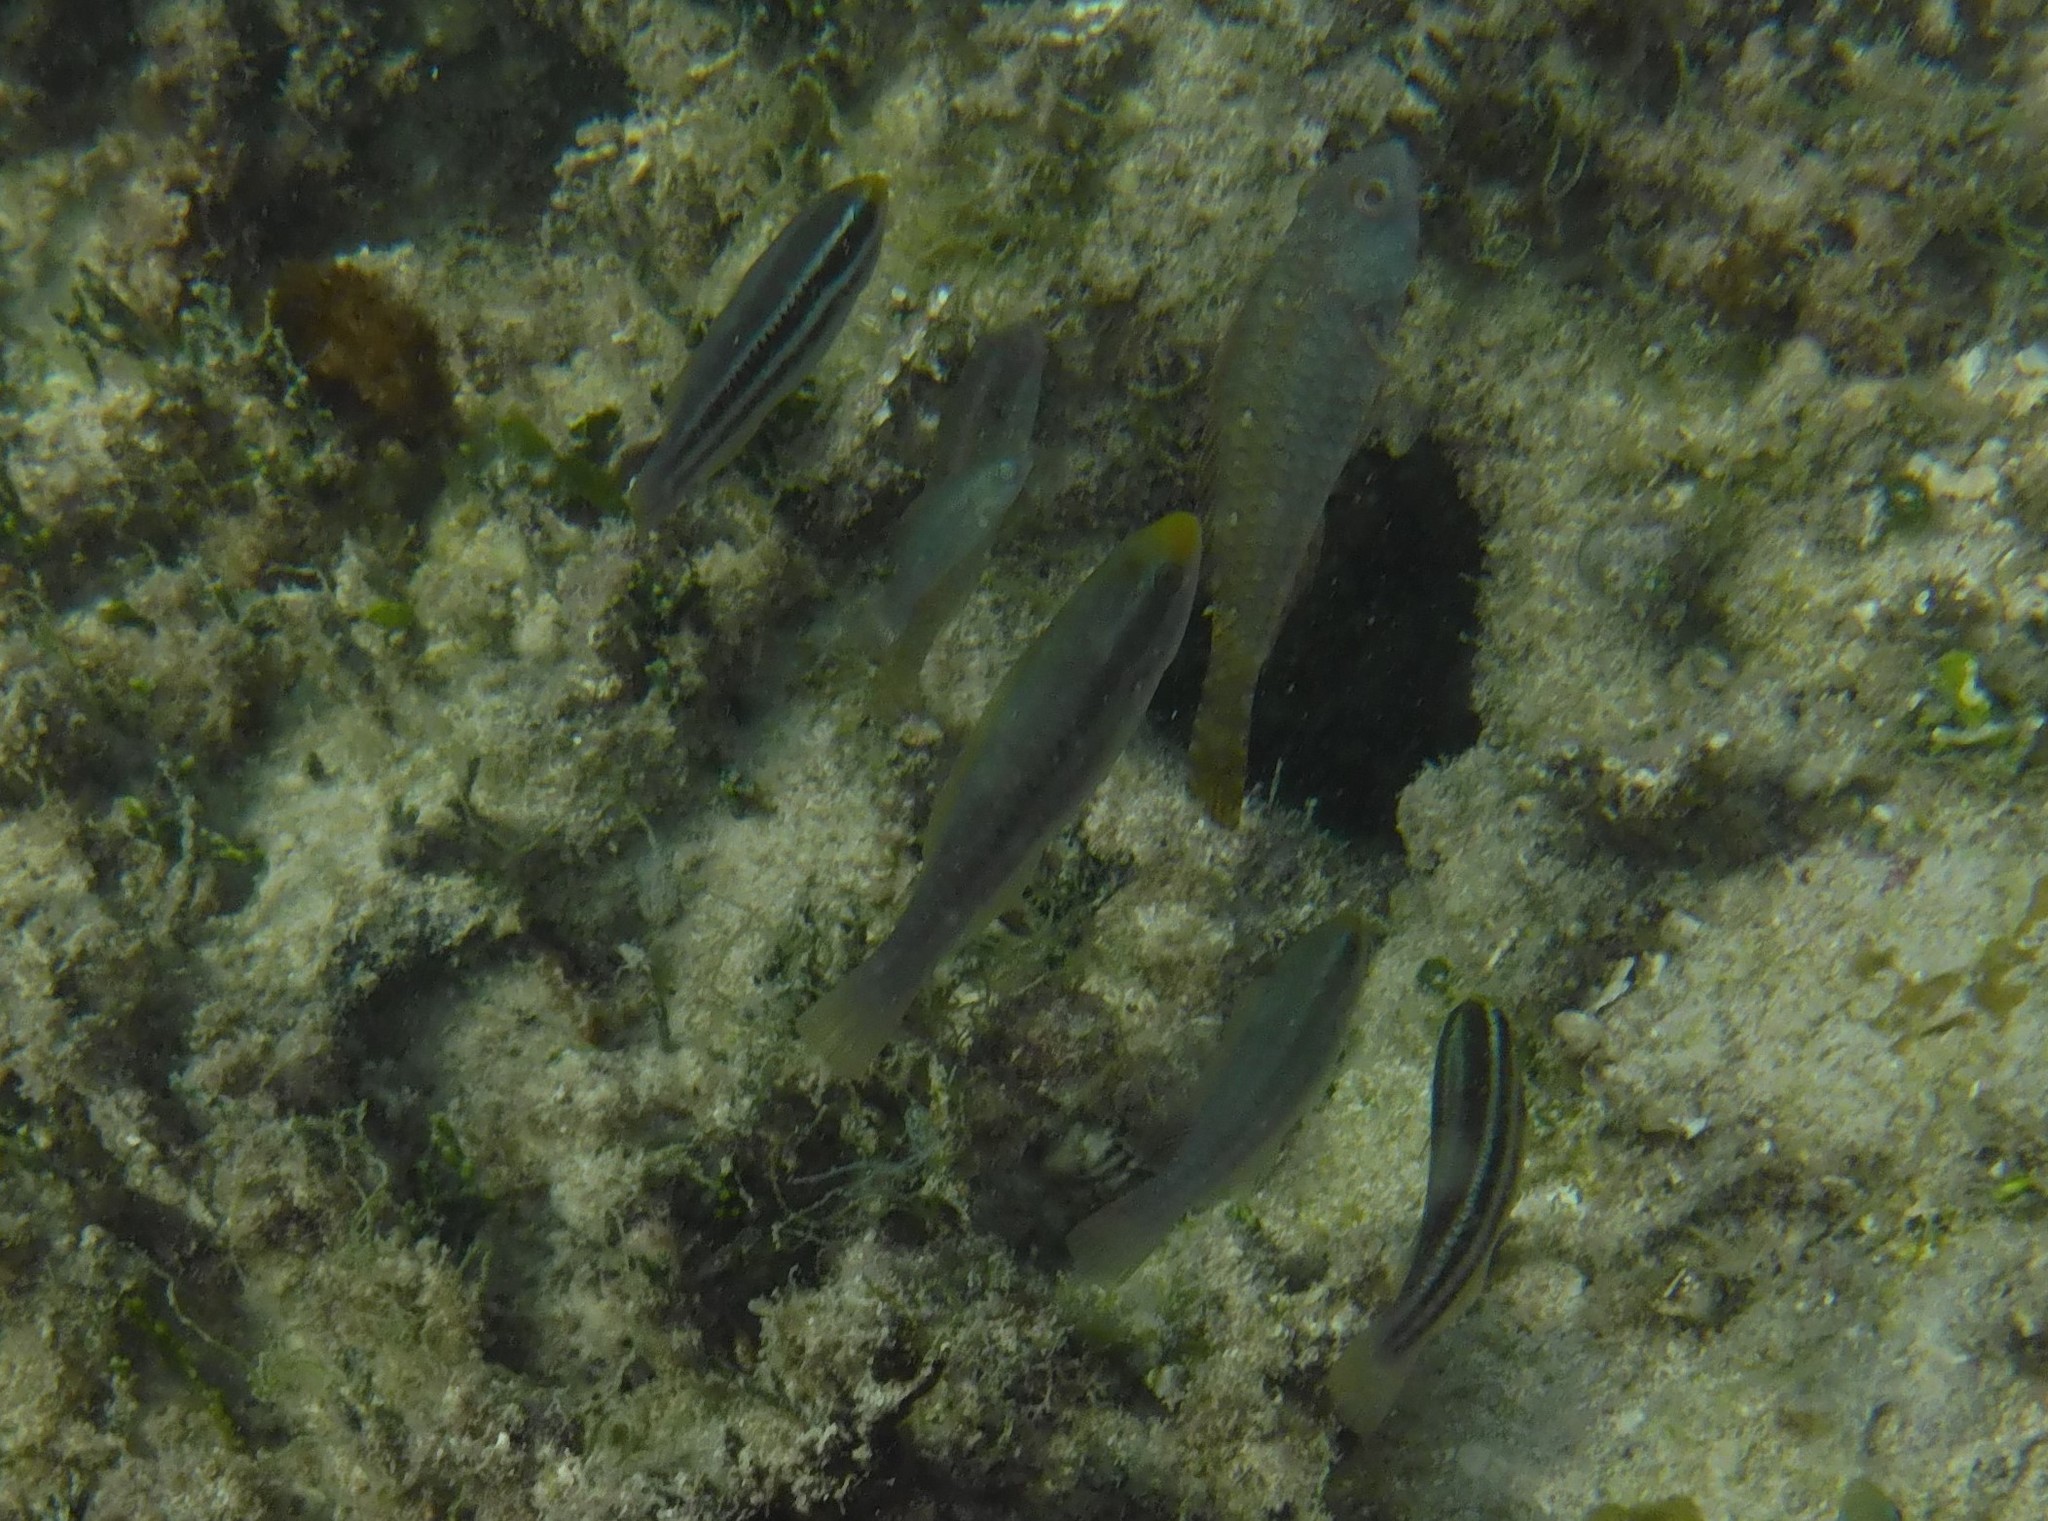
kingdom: Animalia
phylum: Chordata
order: Perciformes
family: Scaridae
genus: Scarus
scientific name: Scarus iseri
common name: Striped parrotfish
